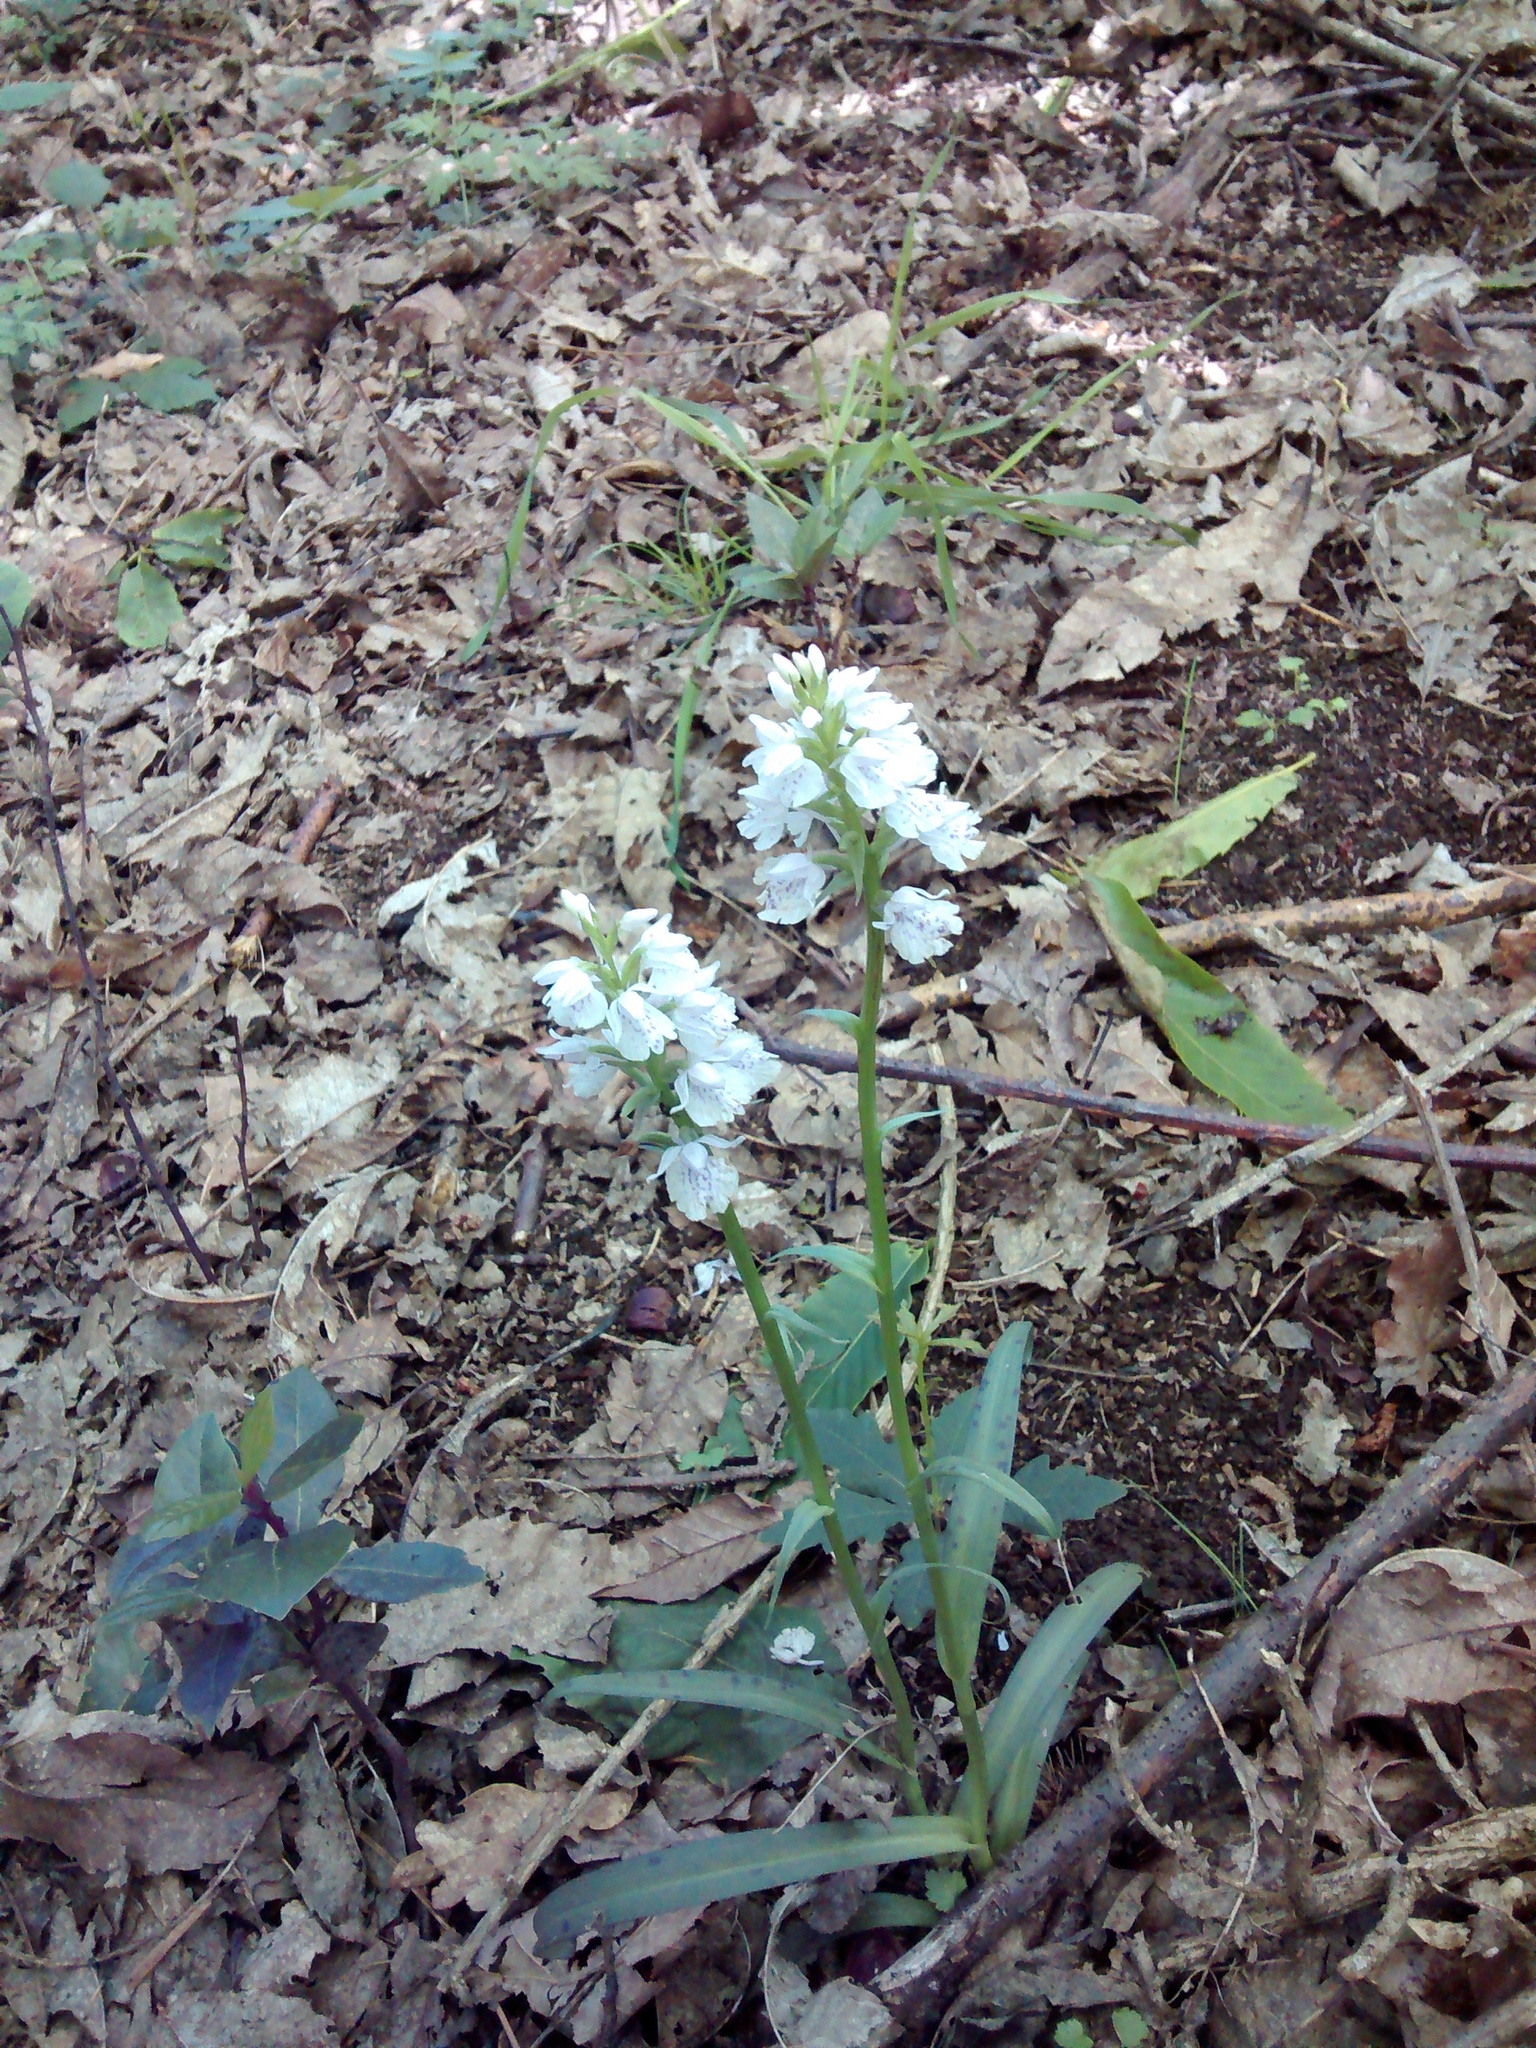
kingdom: Plantae
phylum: Tracheophyta
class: Liliopsida
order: Asparagales
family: Orchidaceae
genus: Dactylorhiza
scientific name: Dactylorhiza maculata
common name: Heath spotted-orchid
